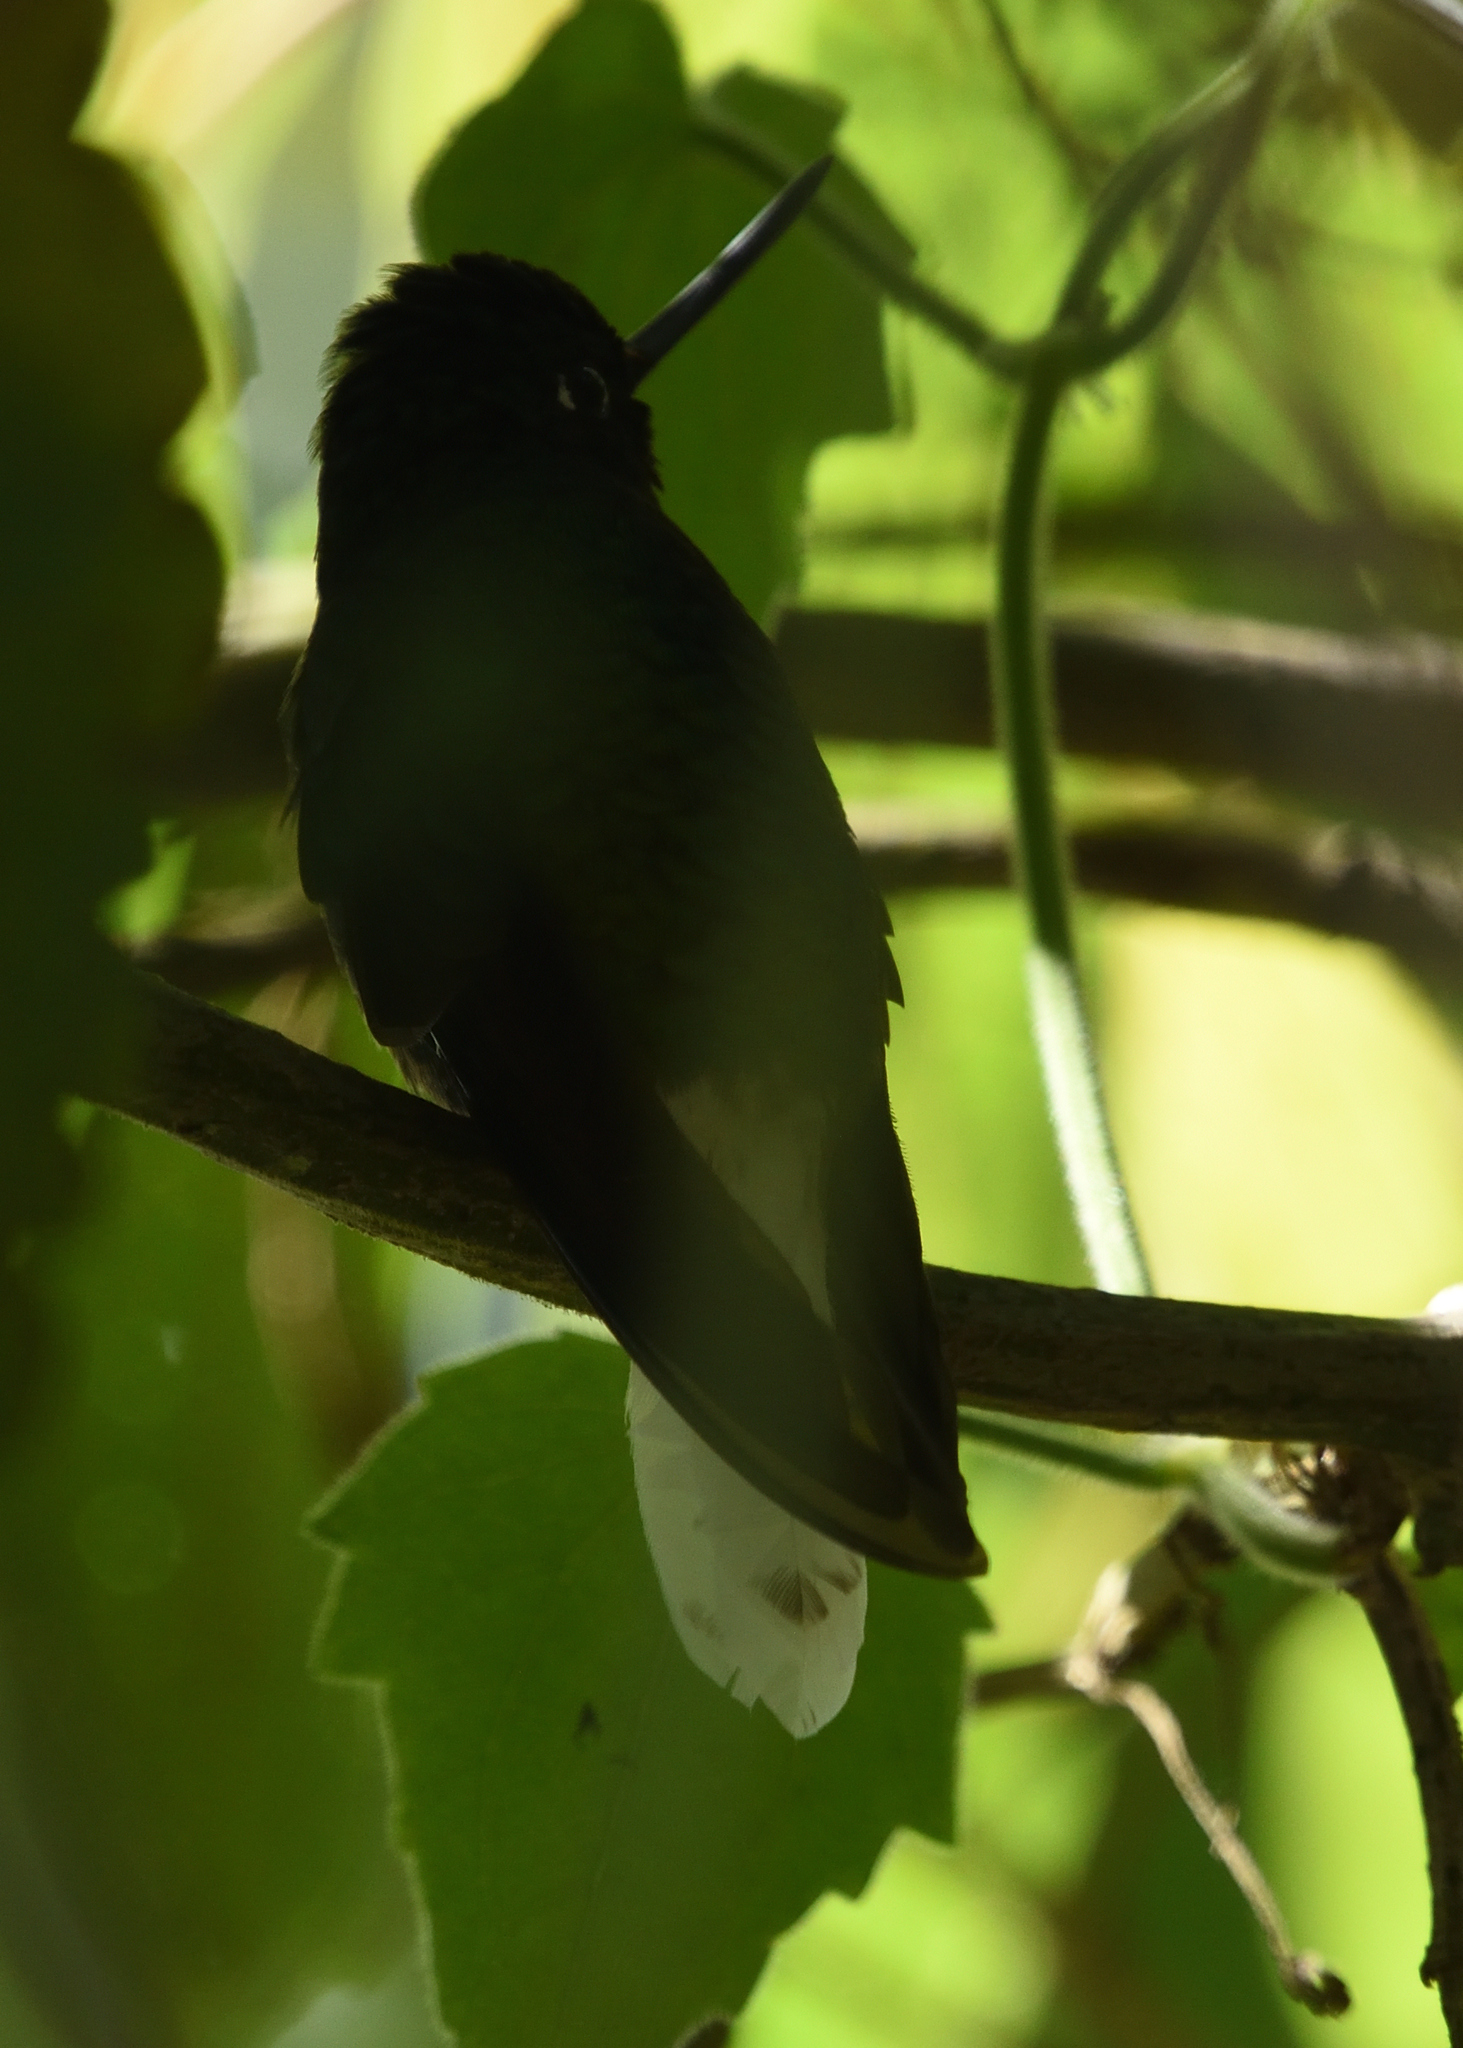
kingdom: Animalia
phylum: Chordata
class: Aves
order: Apodiformes
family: Trochilidae
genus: Coeligena
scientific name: Coeligena phalerata
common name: White-tailed starfrontlet
